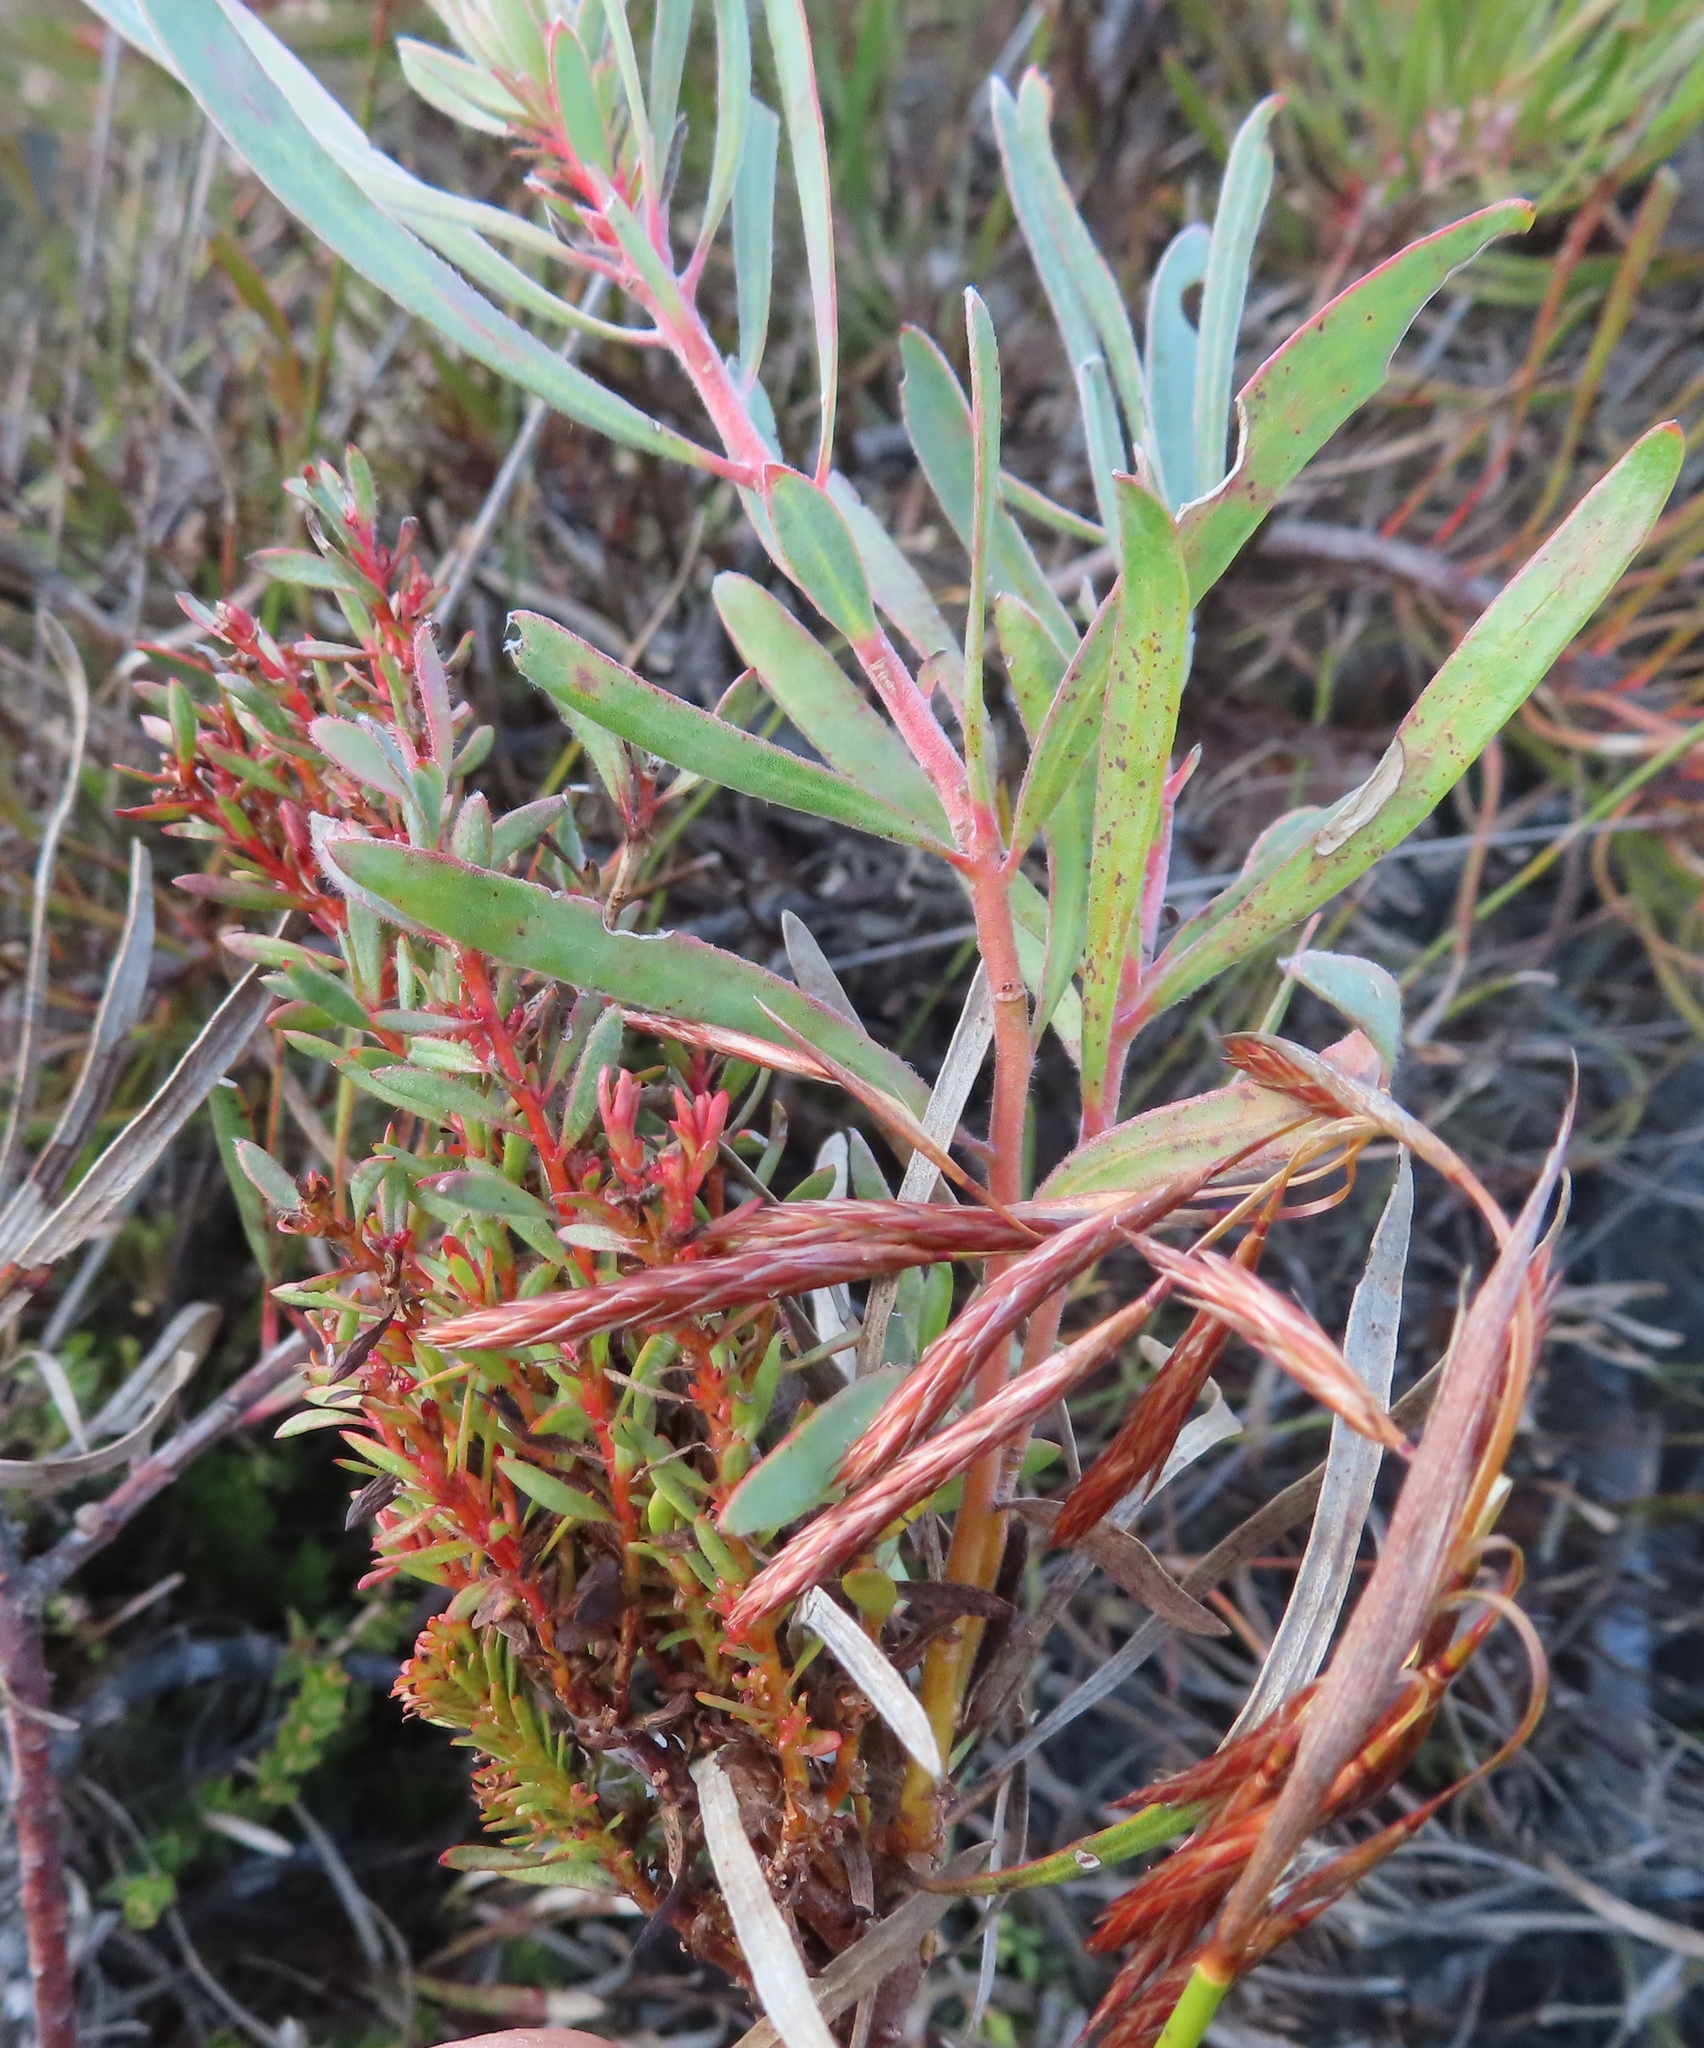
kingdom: Bacteria
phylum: Firmicutes
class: Bacilli
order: Acholeplasmatales
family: Acholeplasmataceae
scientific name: Acholeplasmataceae
